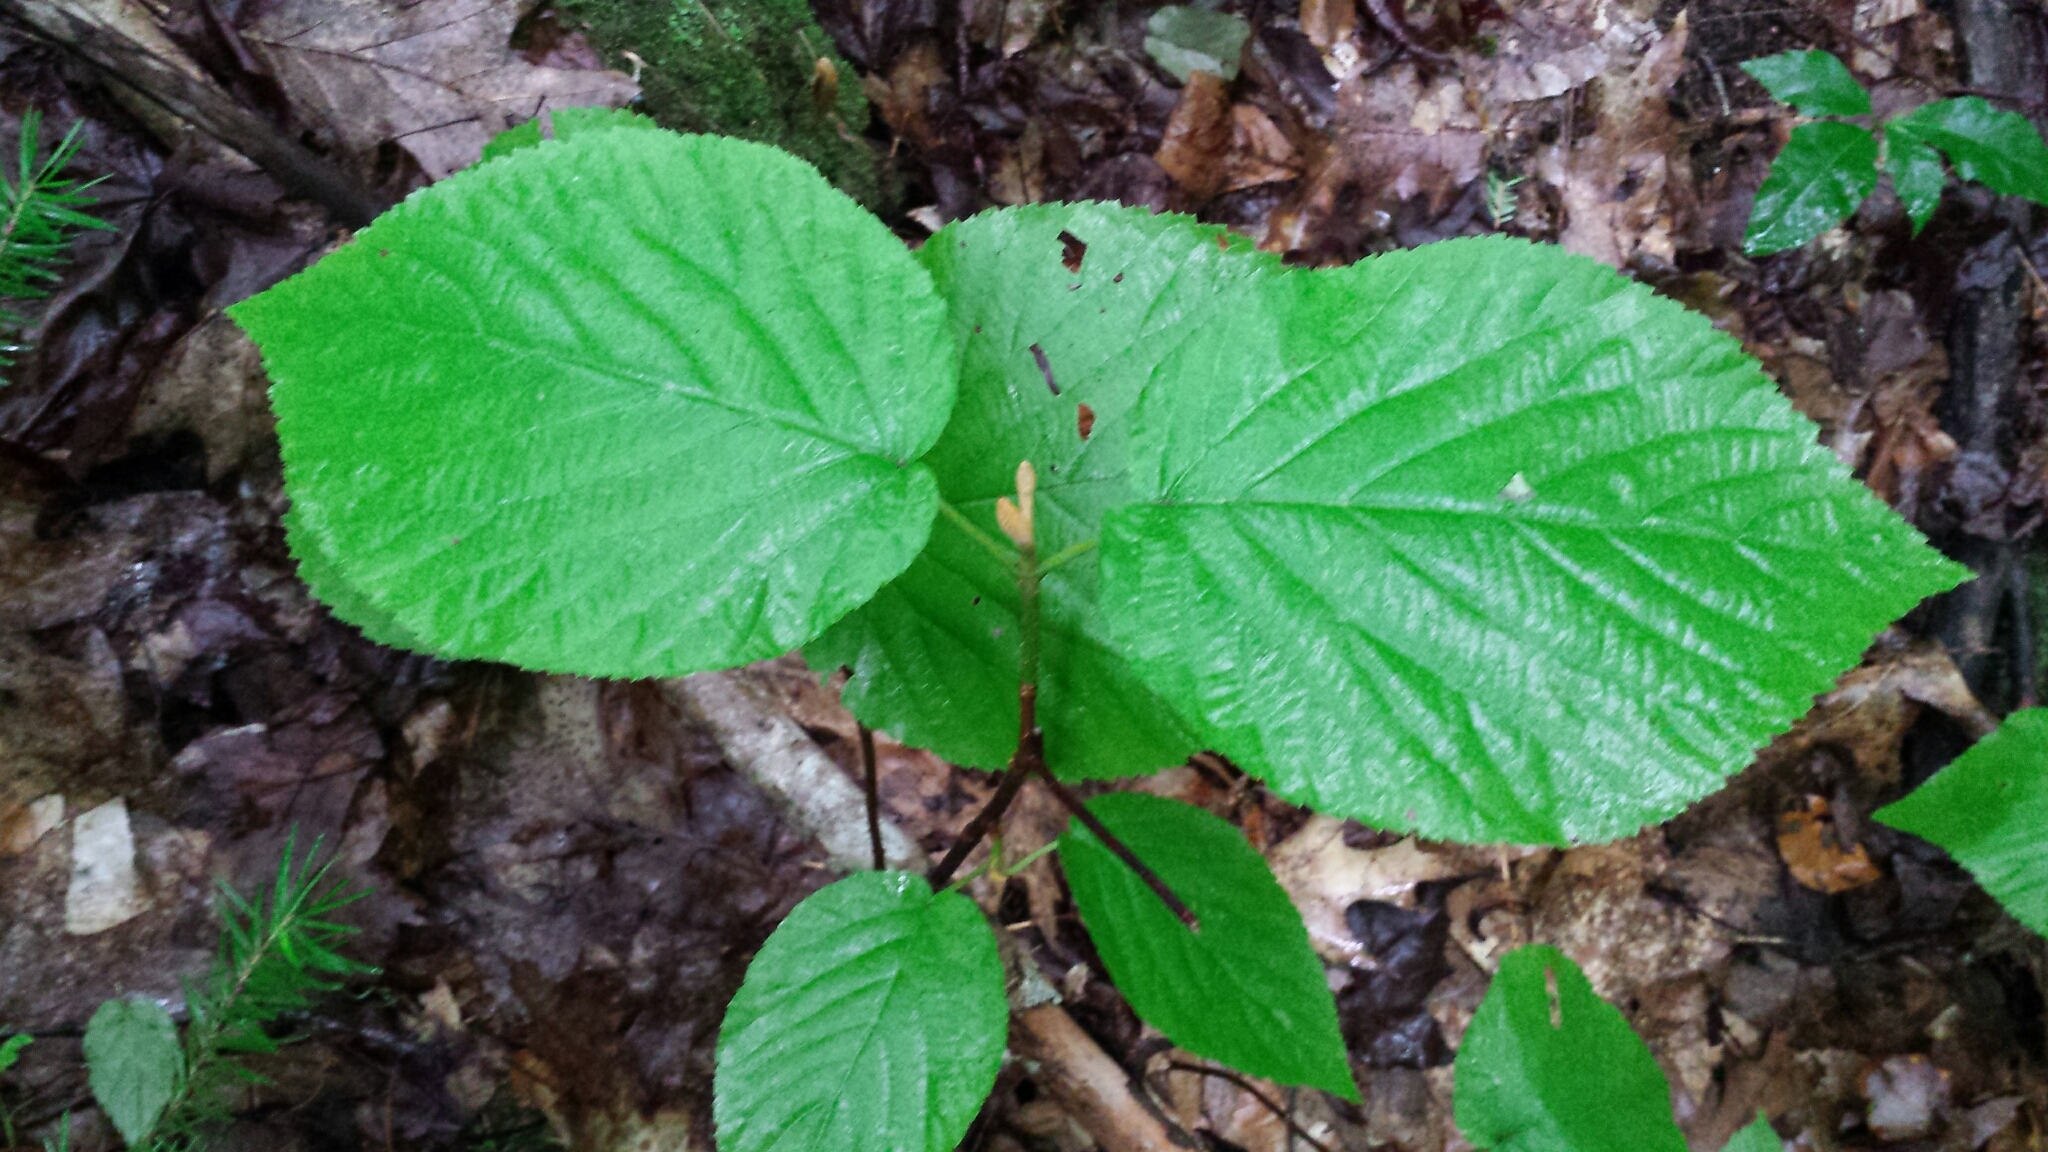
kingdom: Plantae
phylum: Tracheophyta
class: Magnoliopsida
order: Dipsacales
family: Viburnaceae
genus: Viburnum
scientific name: Viburnum lantanoides
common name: Hobblebush
